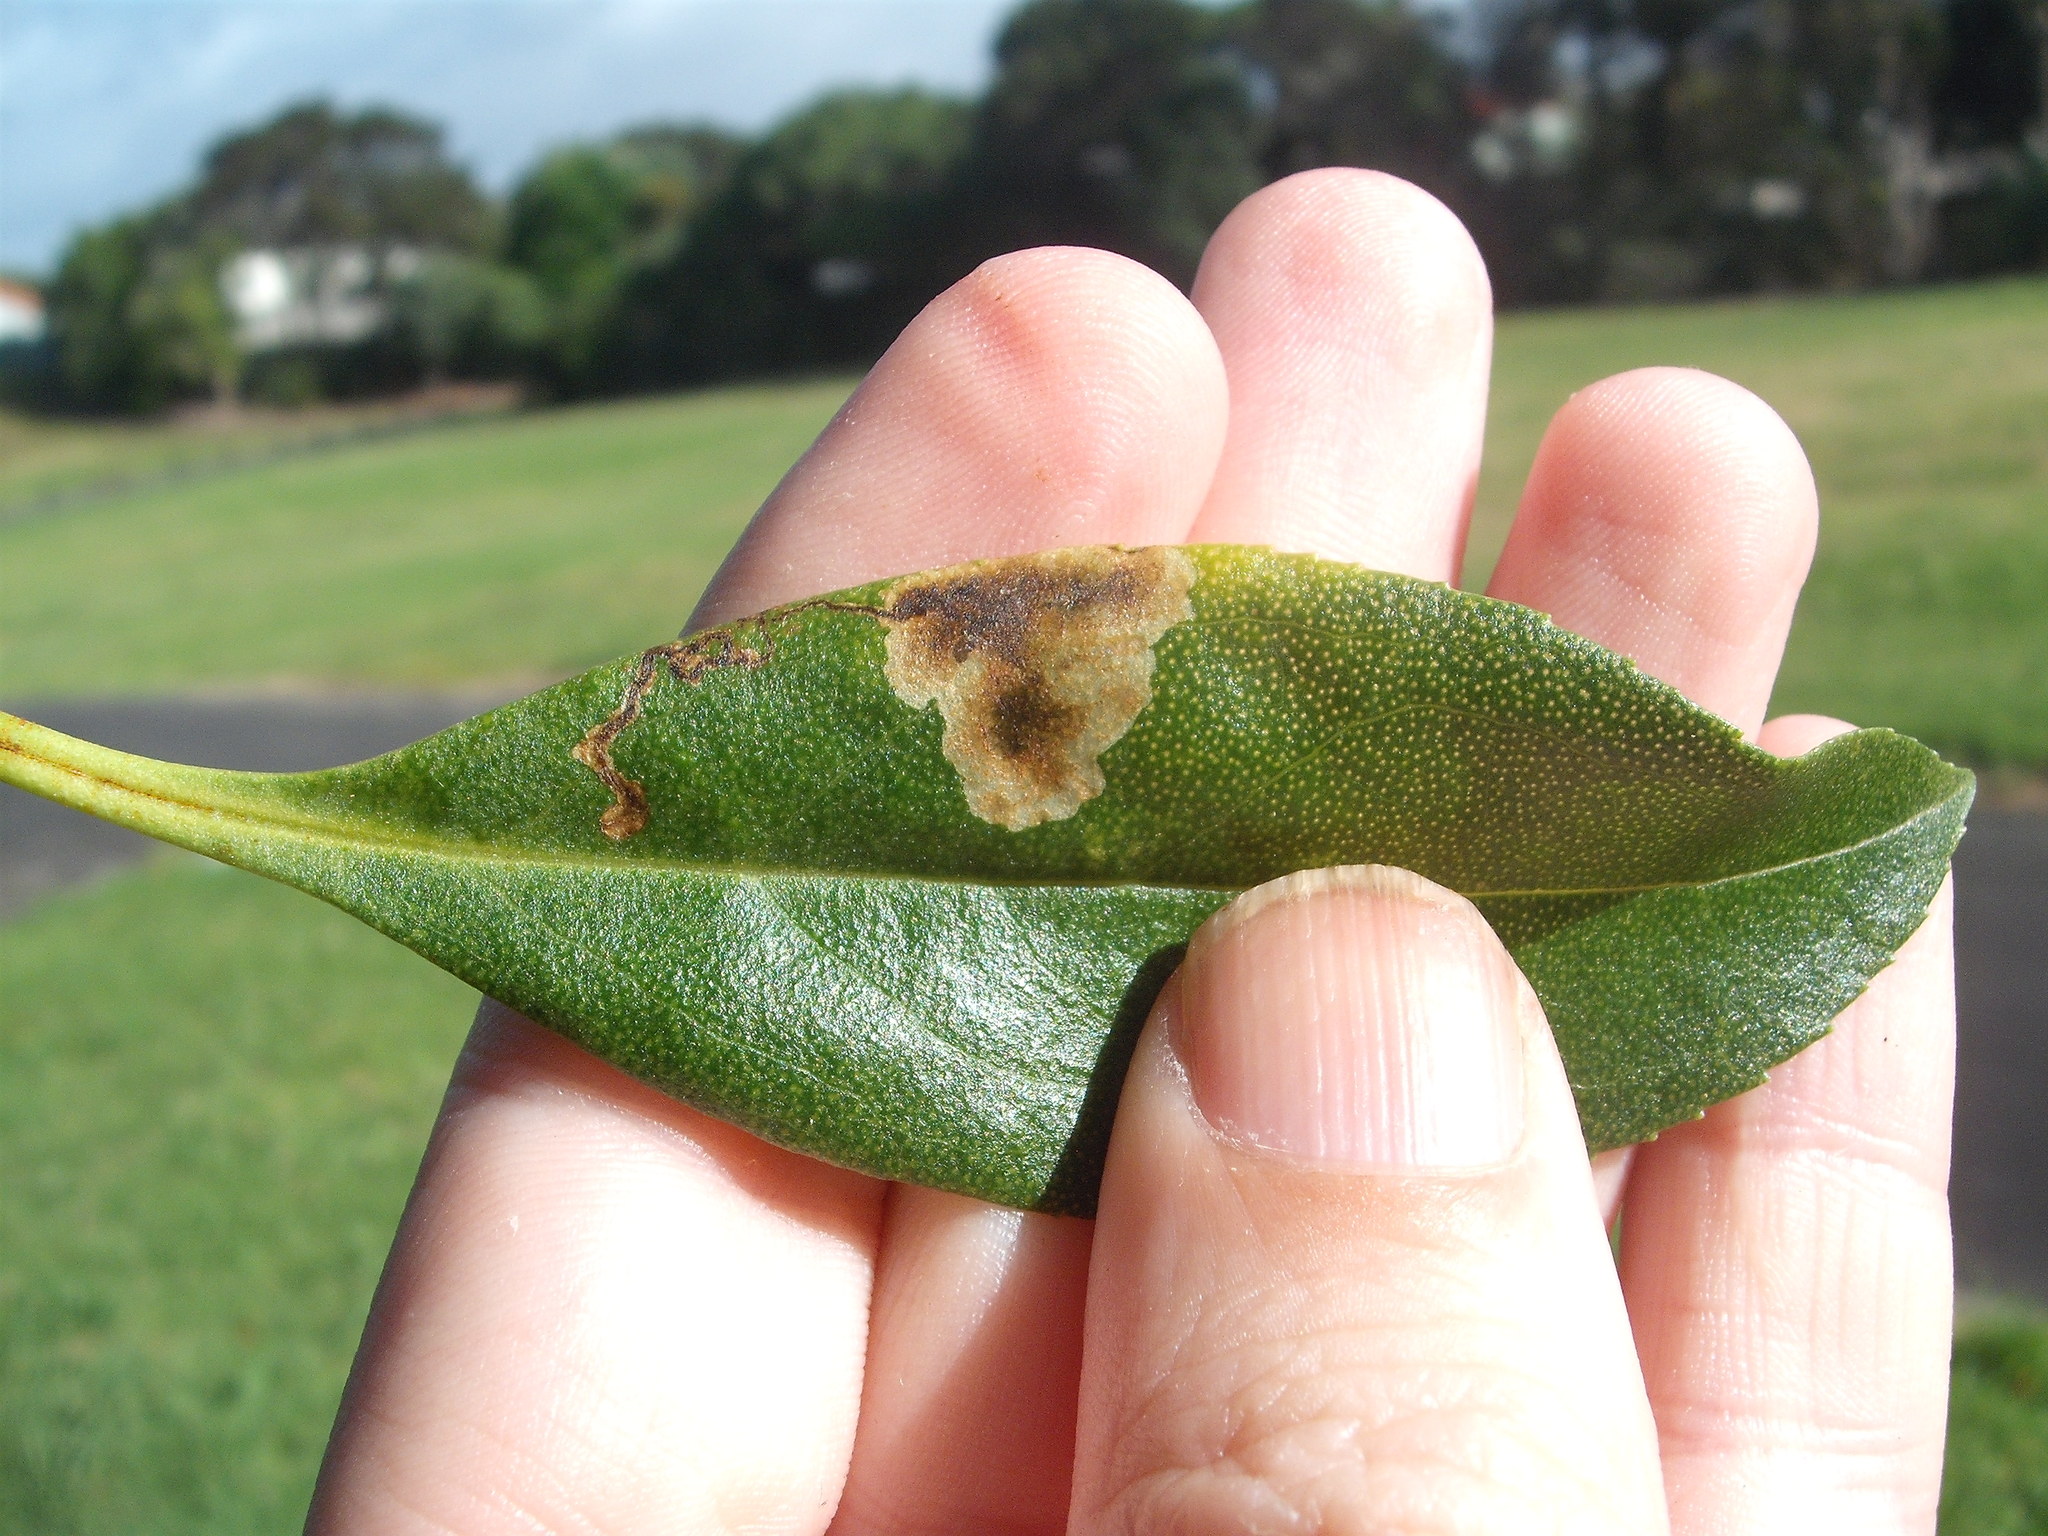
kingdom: Animalia
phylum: Arthropoda
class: Insecta
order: Diptera
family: Agromyzidae
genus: Liriomyza
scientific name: Liriomyza citreifemorata
